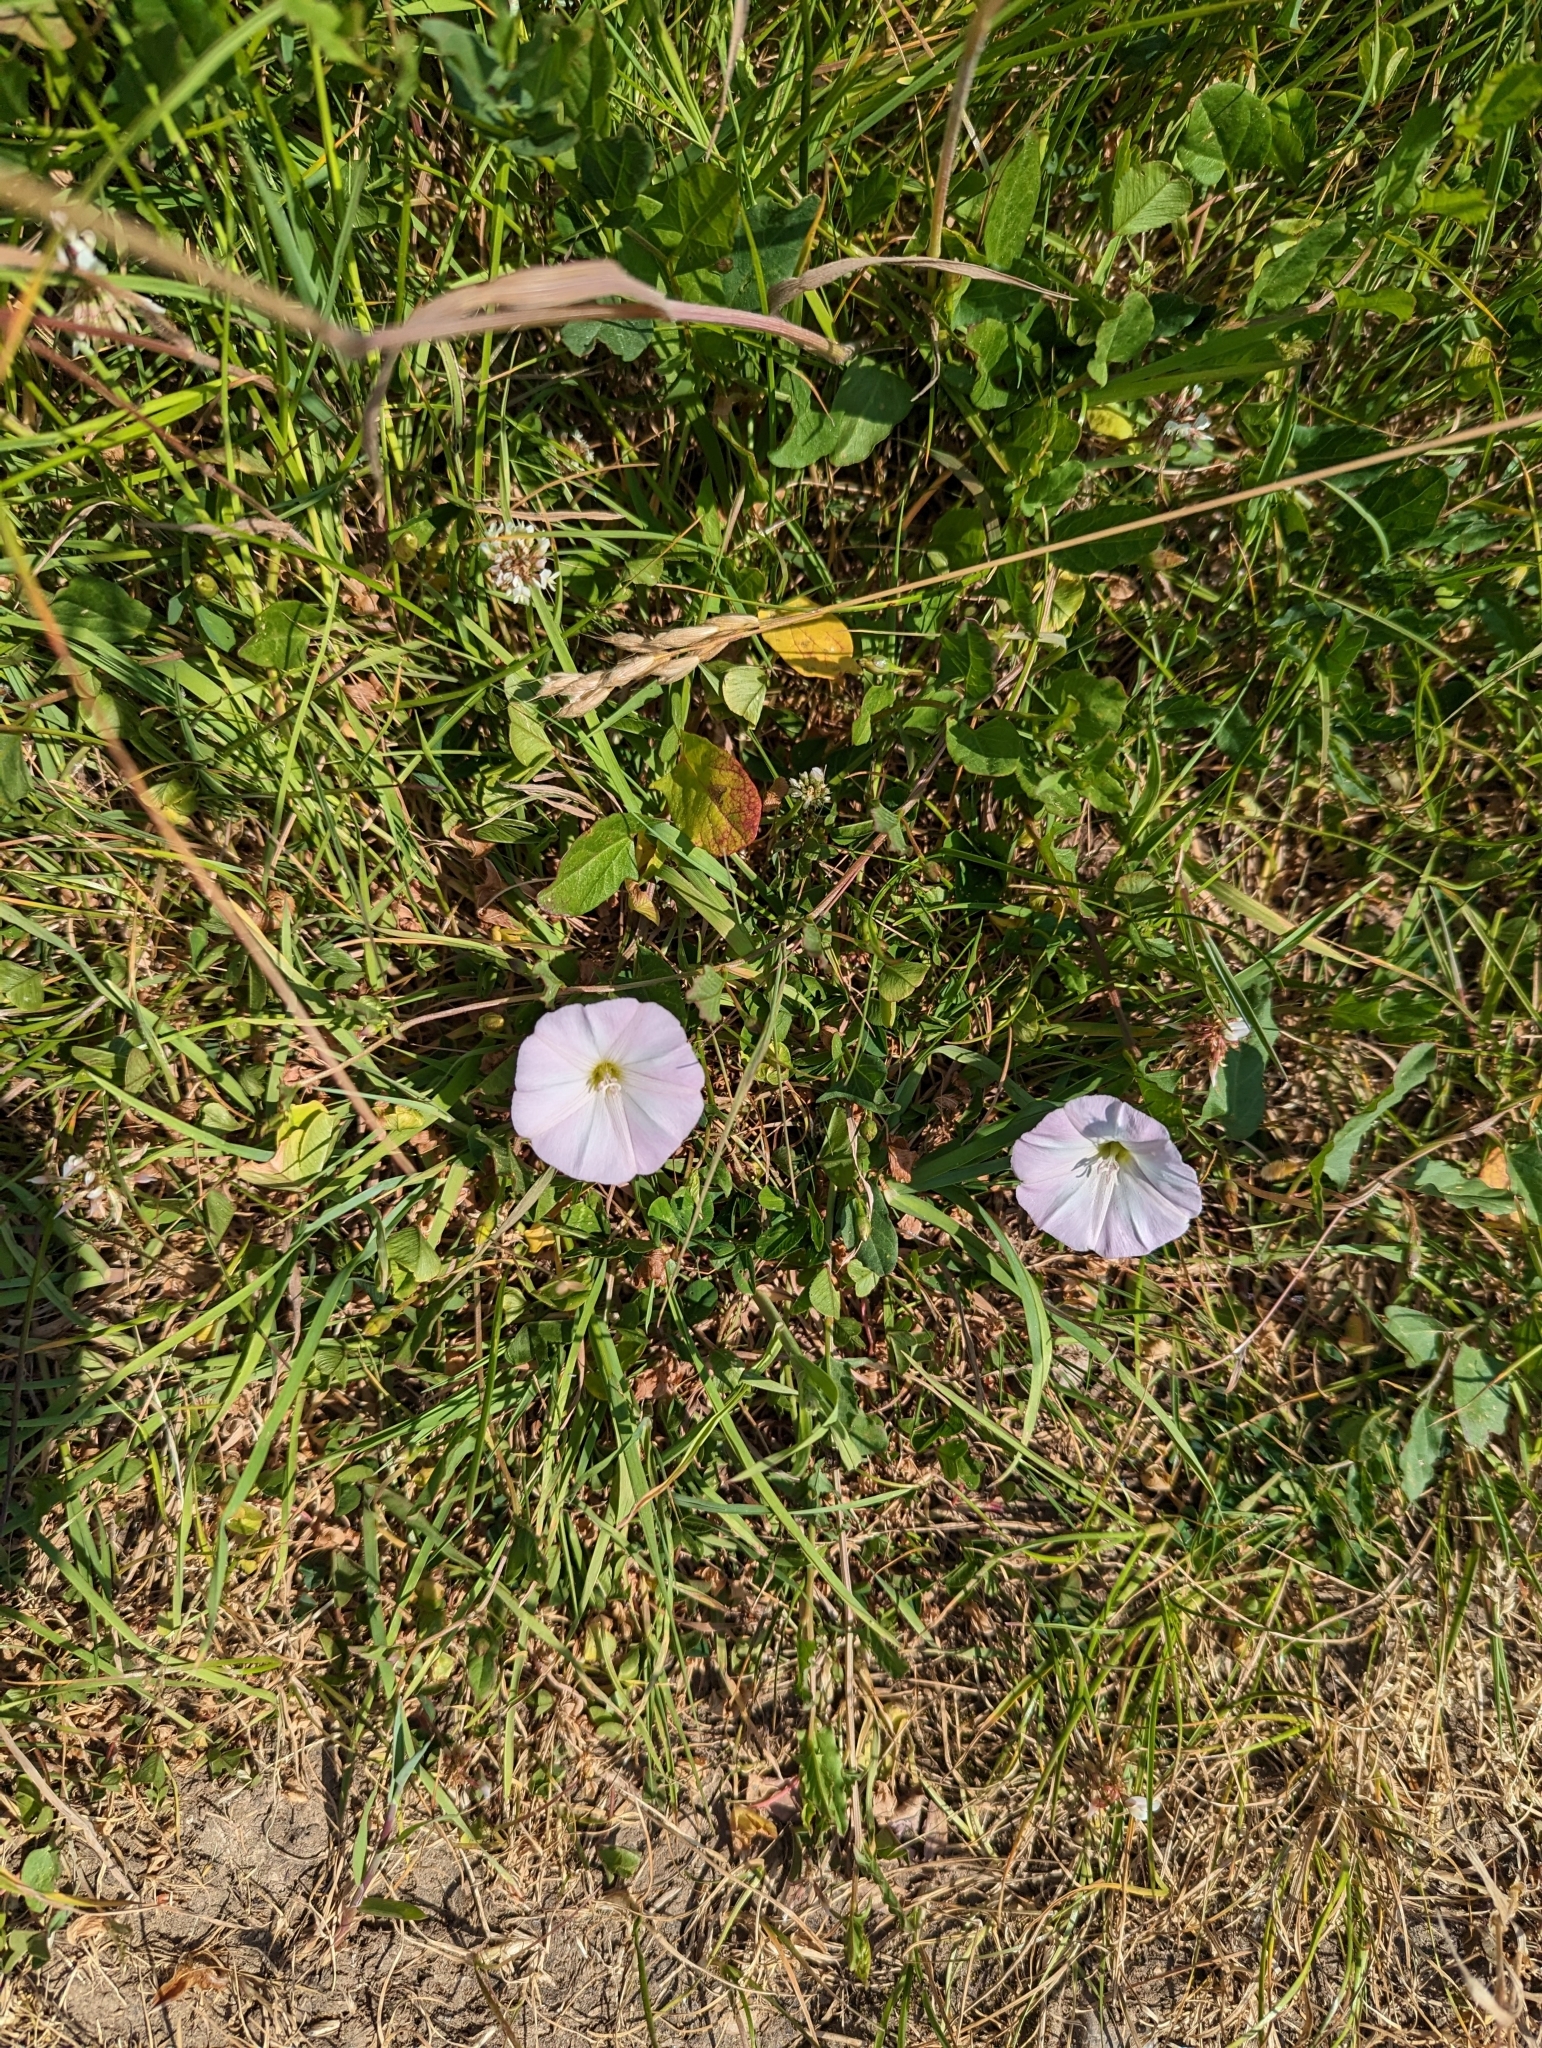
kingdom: Plantae
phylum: Tracheophyta
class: Magnoliopsida
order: Solanales
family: Convolvulaceae
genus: Convolvulus
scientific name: Convolvulus arvensis
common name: Field bindweed
